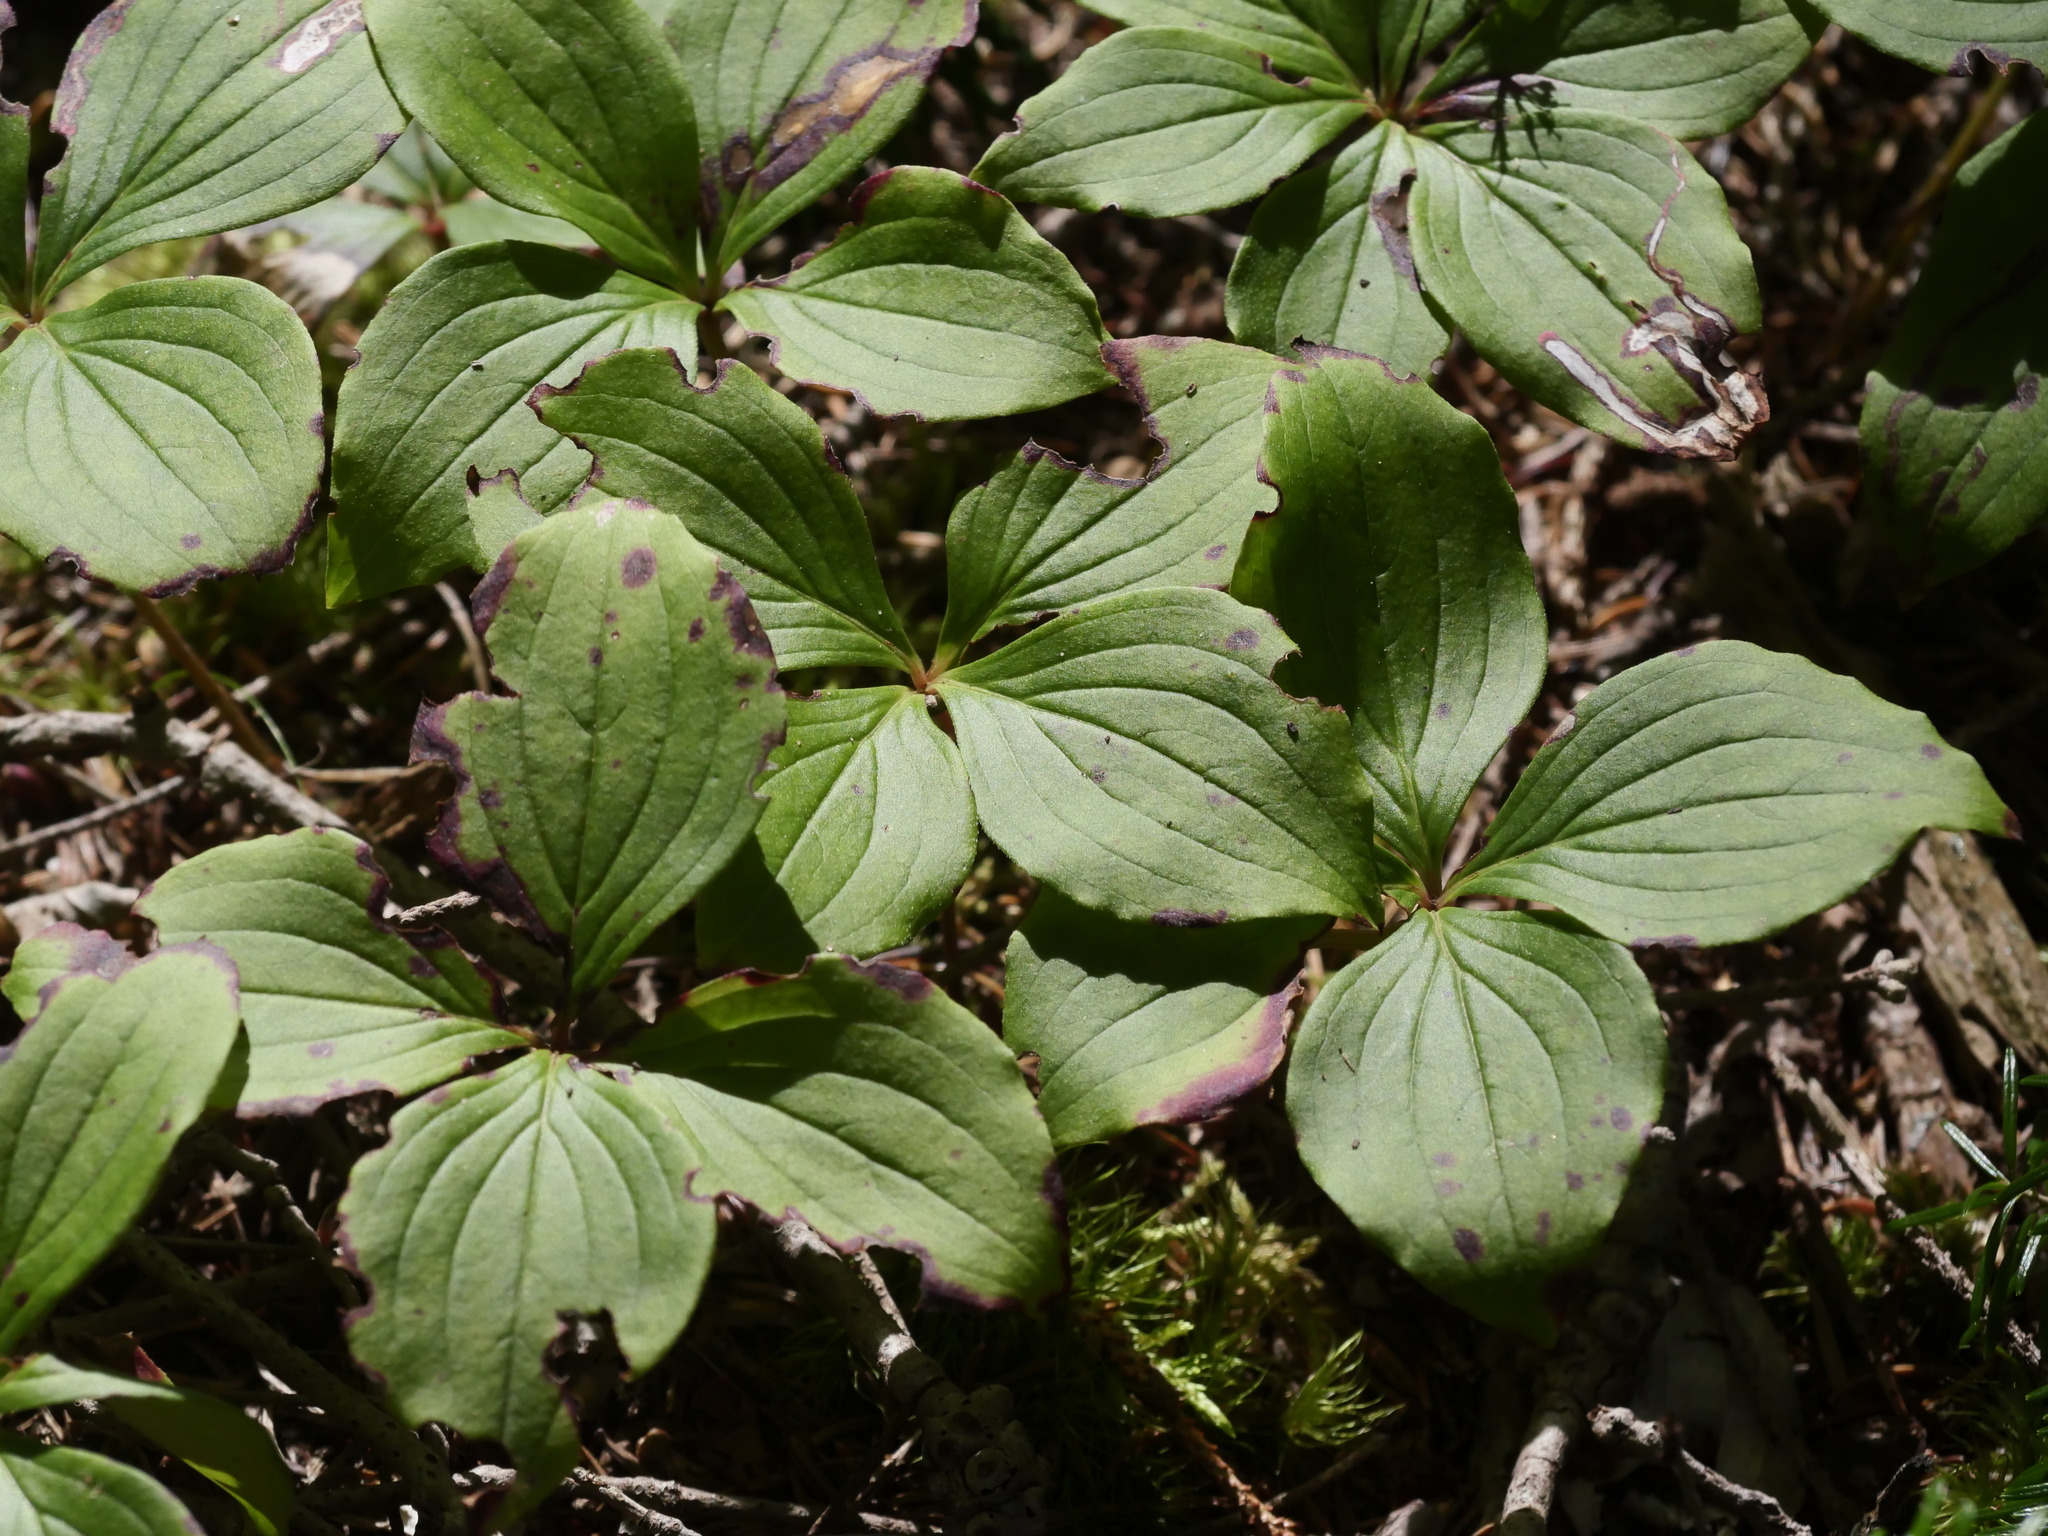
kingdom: Plantae
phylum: Tracheophyta
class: Magnoliopsida
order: Cornales
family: Cornaceae
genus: Cornus
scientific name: Cornus canadensis
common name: Creeping dogwood
